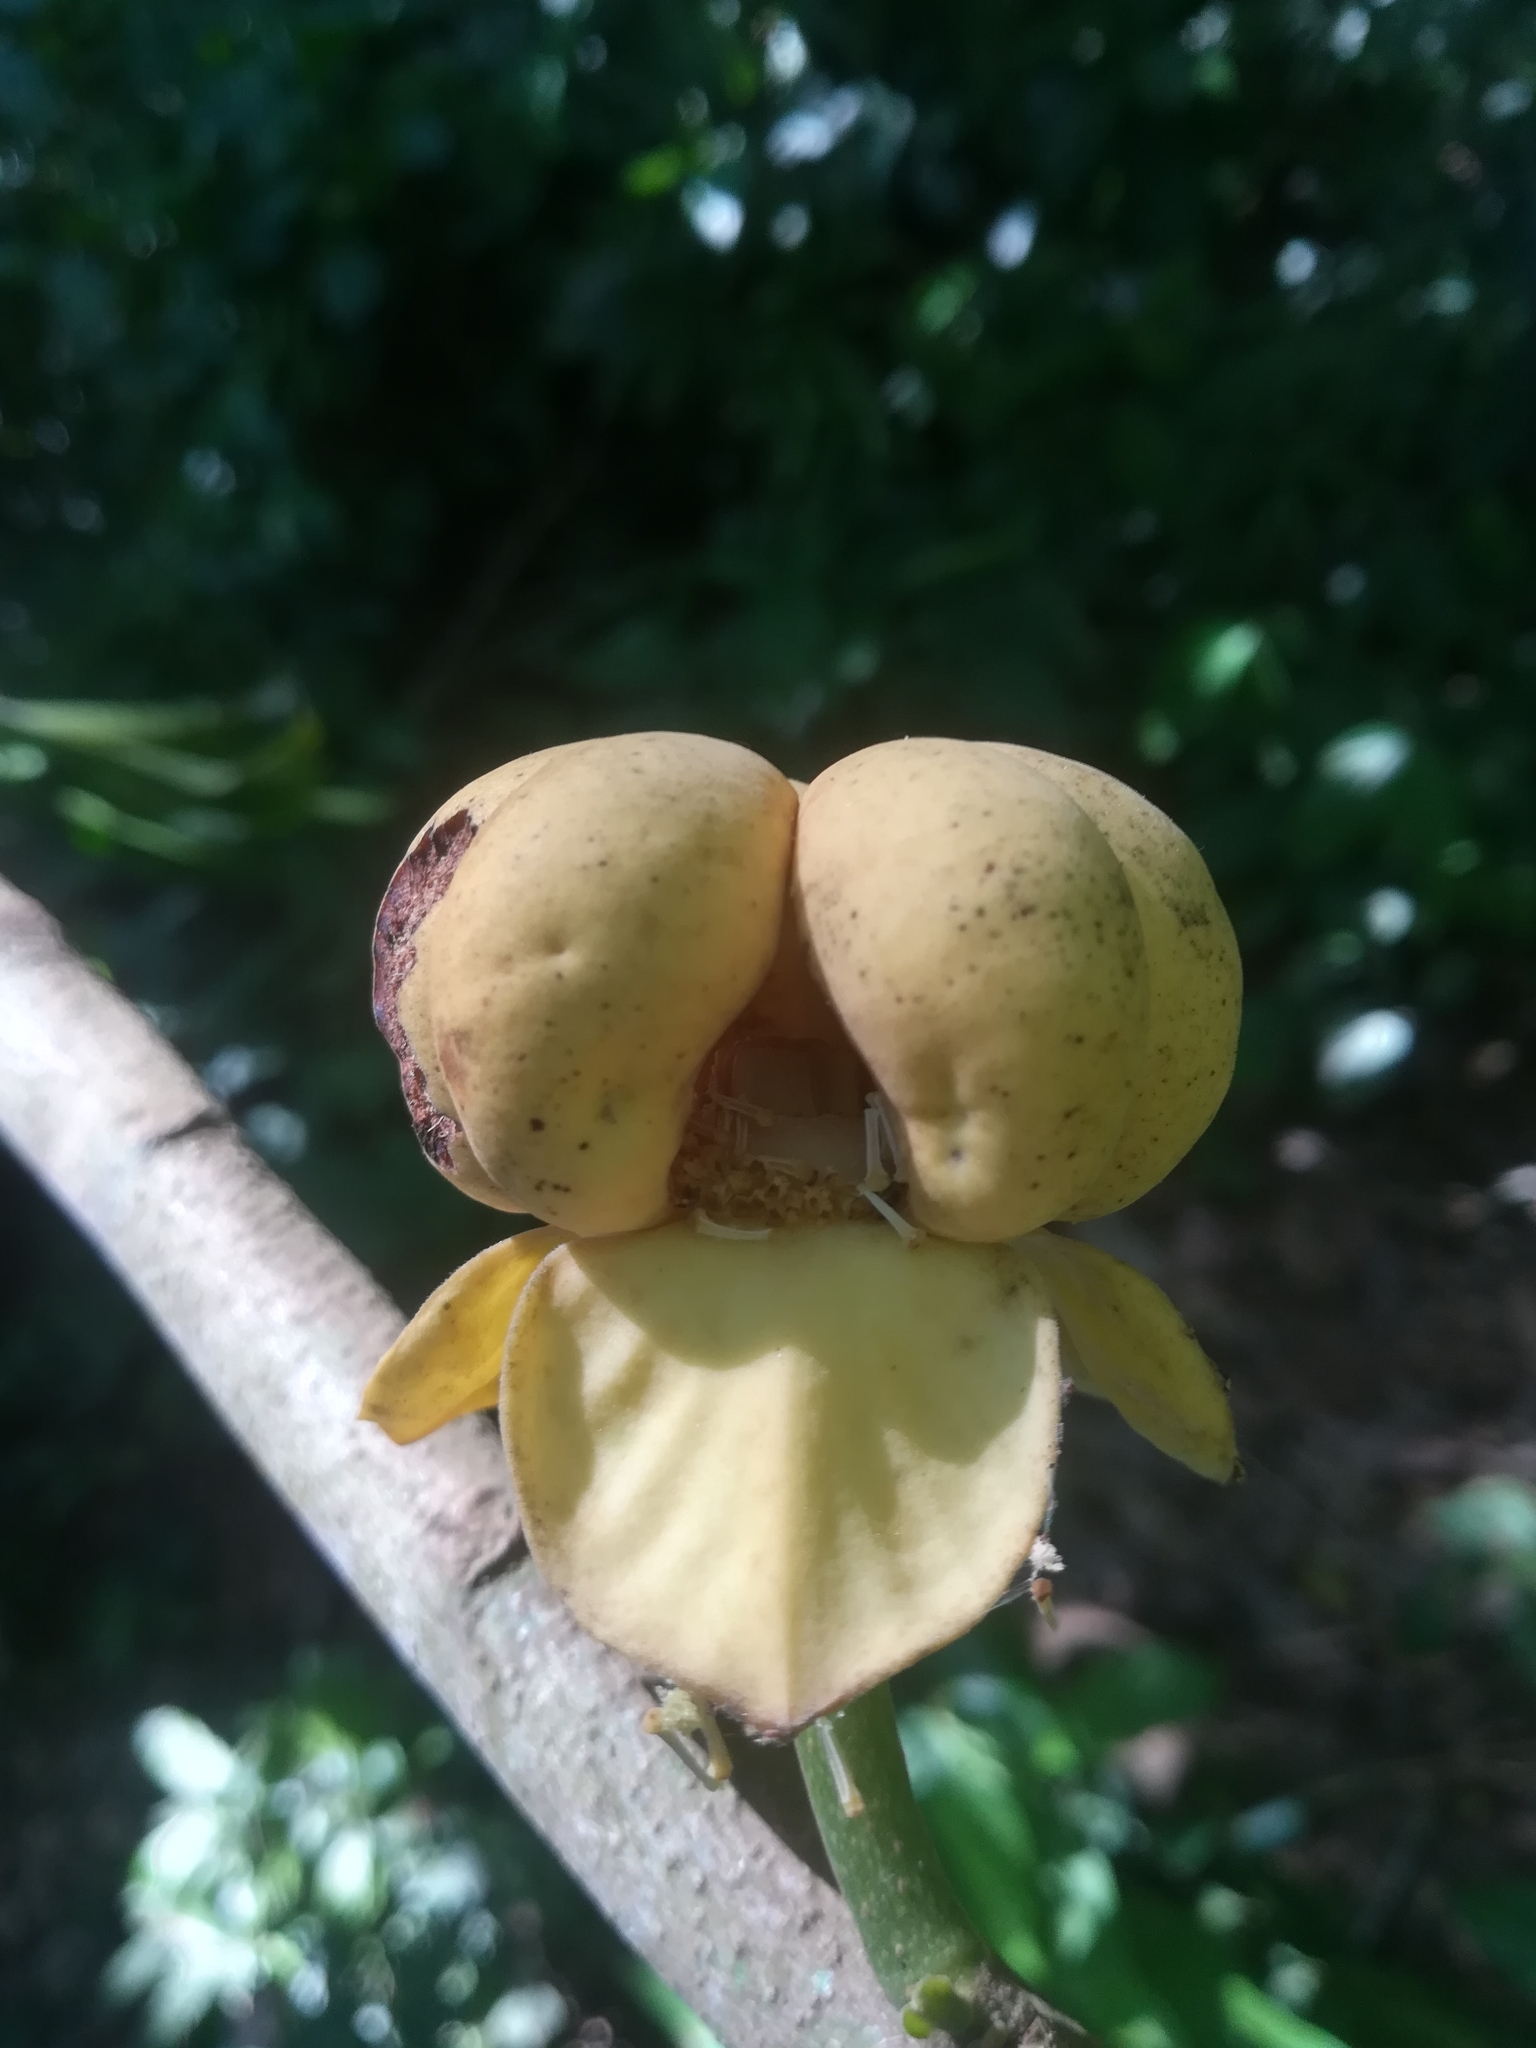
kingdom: Plantae
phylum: Tracheophyta
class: Magnoliopsida
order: Magnoliales
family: Annonaceae
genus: Cymbopetalum
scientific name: Cymbopetalum baillonii
